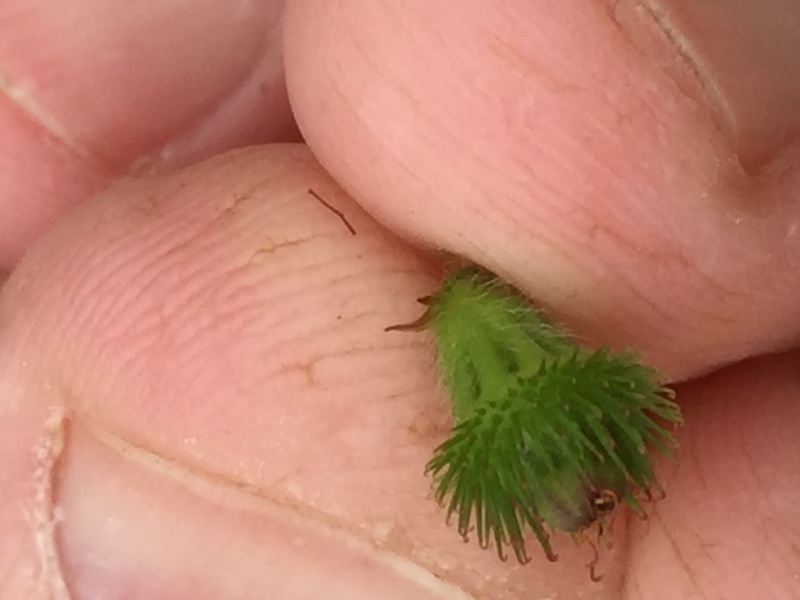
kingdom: Plantae
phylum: Tracheophyta
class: Magnoliopsida
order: Rosales
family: Rosaceae
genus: Agrimonia
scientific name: Agrimonia eupatoria
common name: Agrimony
